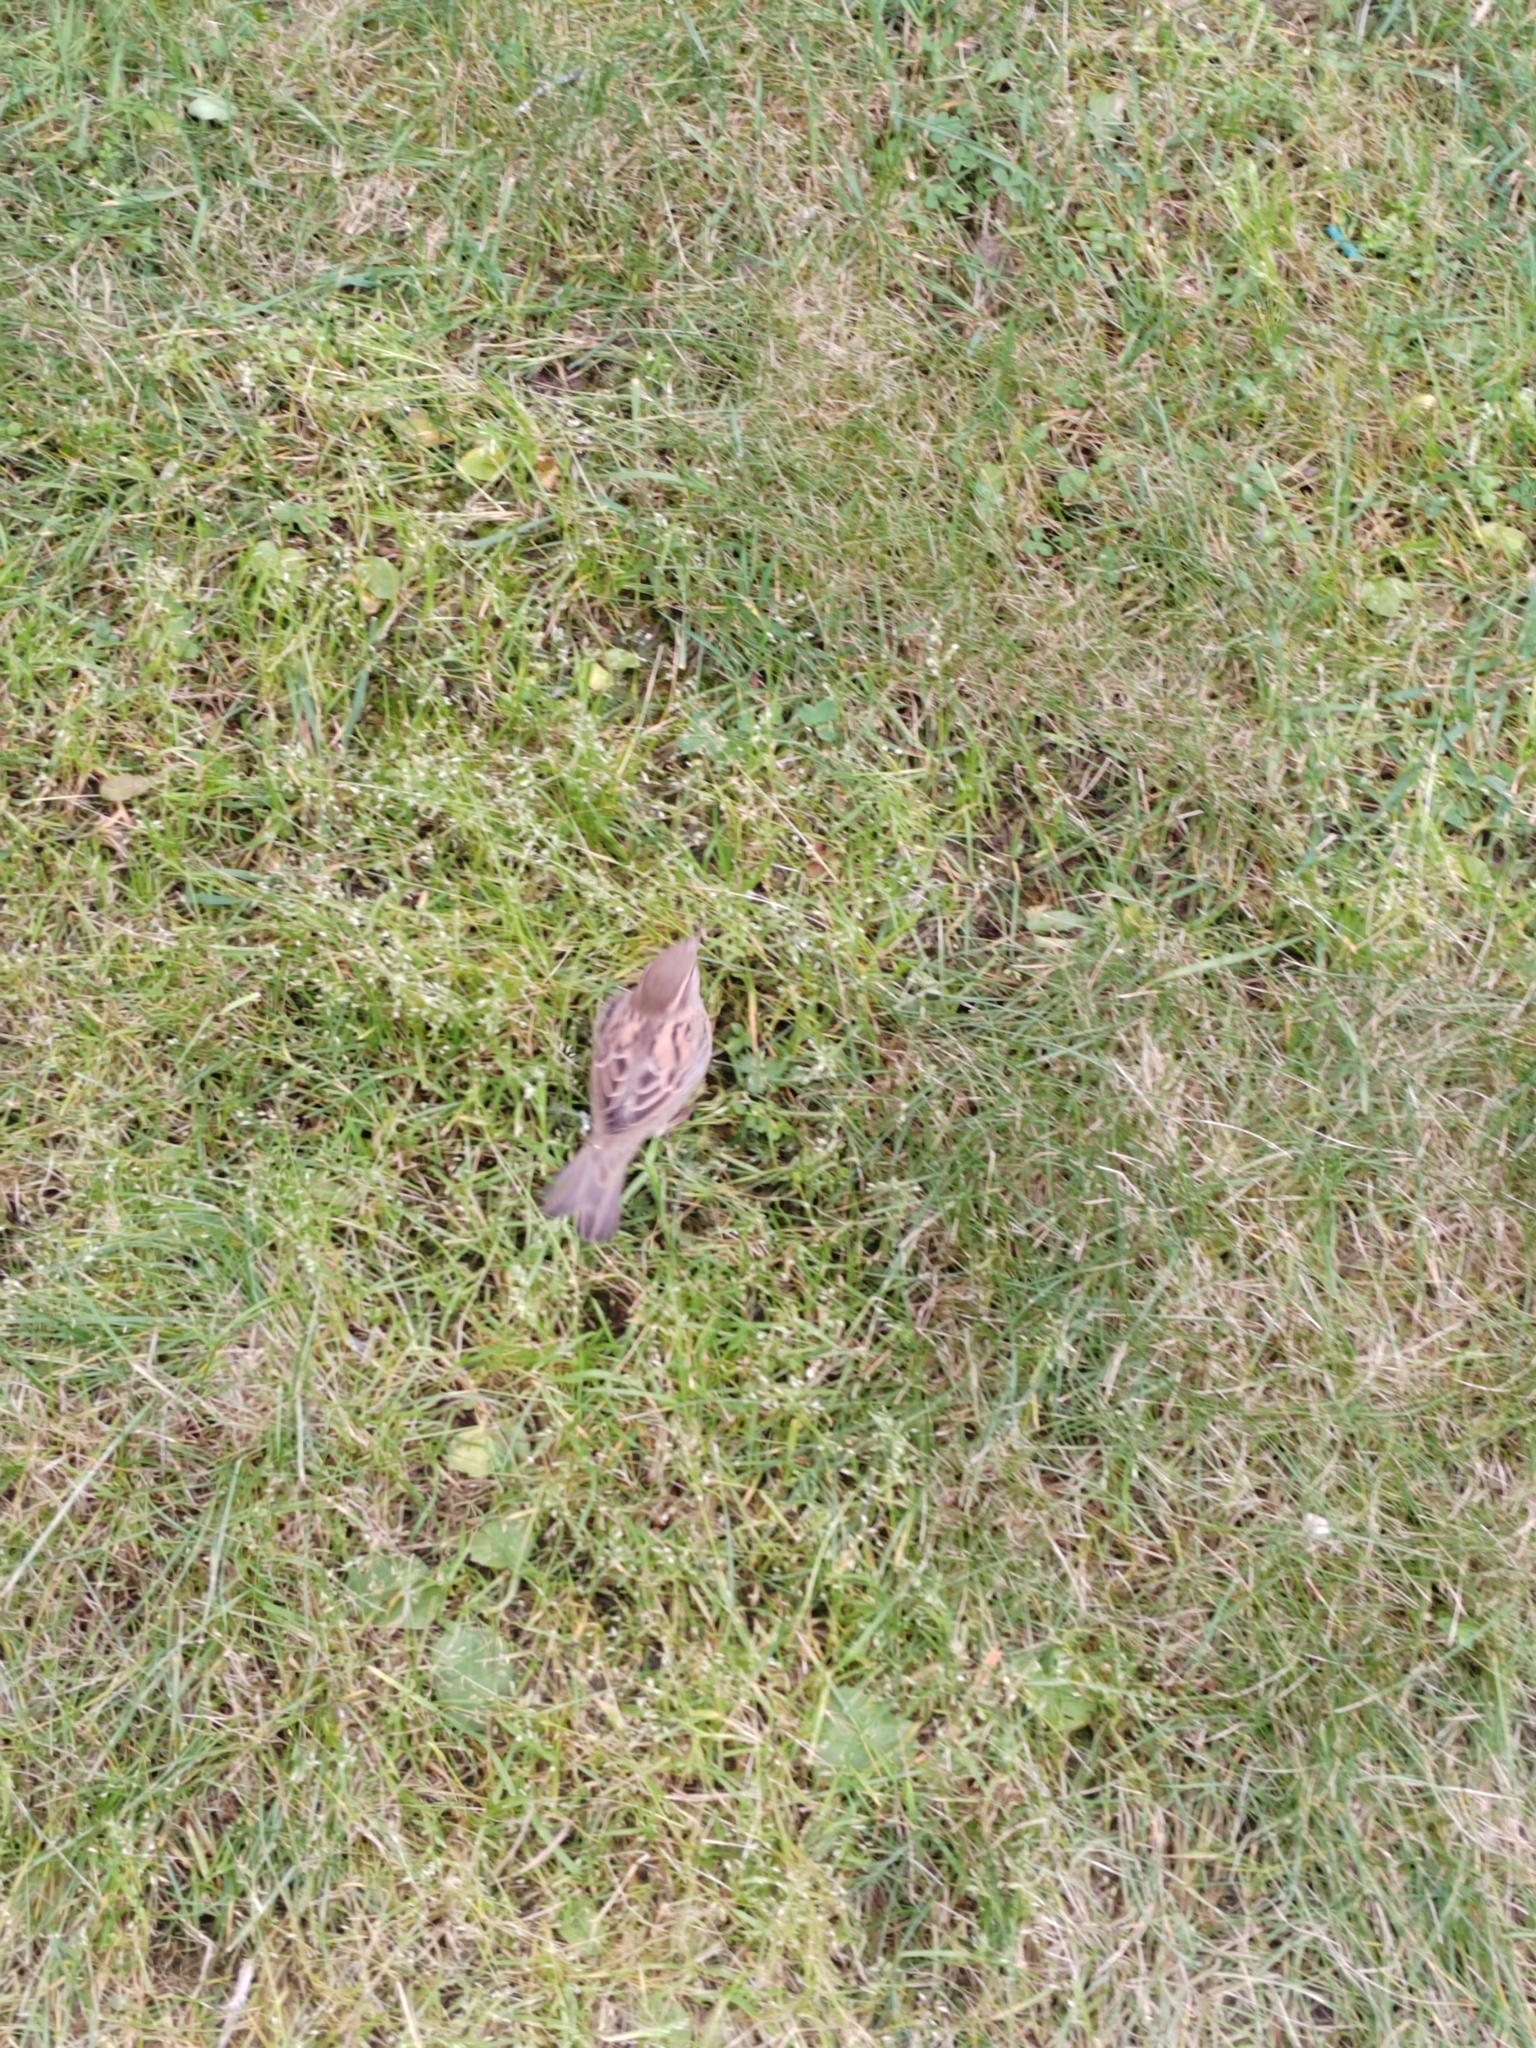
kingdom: Animalia
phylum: Chordata
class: Aves
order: Passeriformes
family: Passeridae
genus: Passer
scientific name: Passer domesticus
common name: House sparrow
